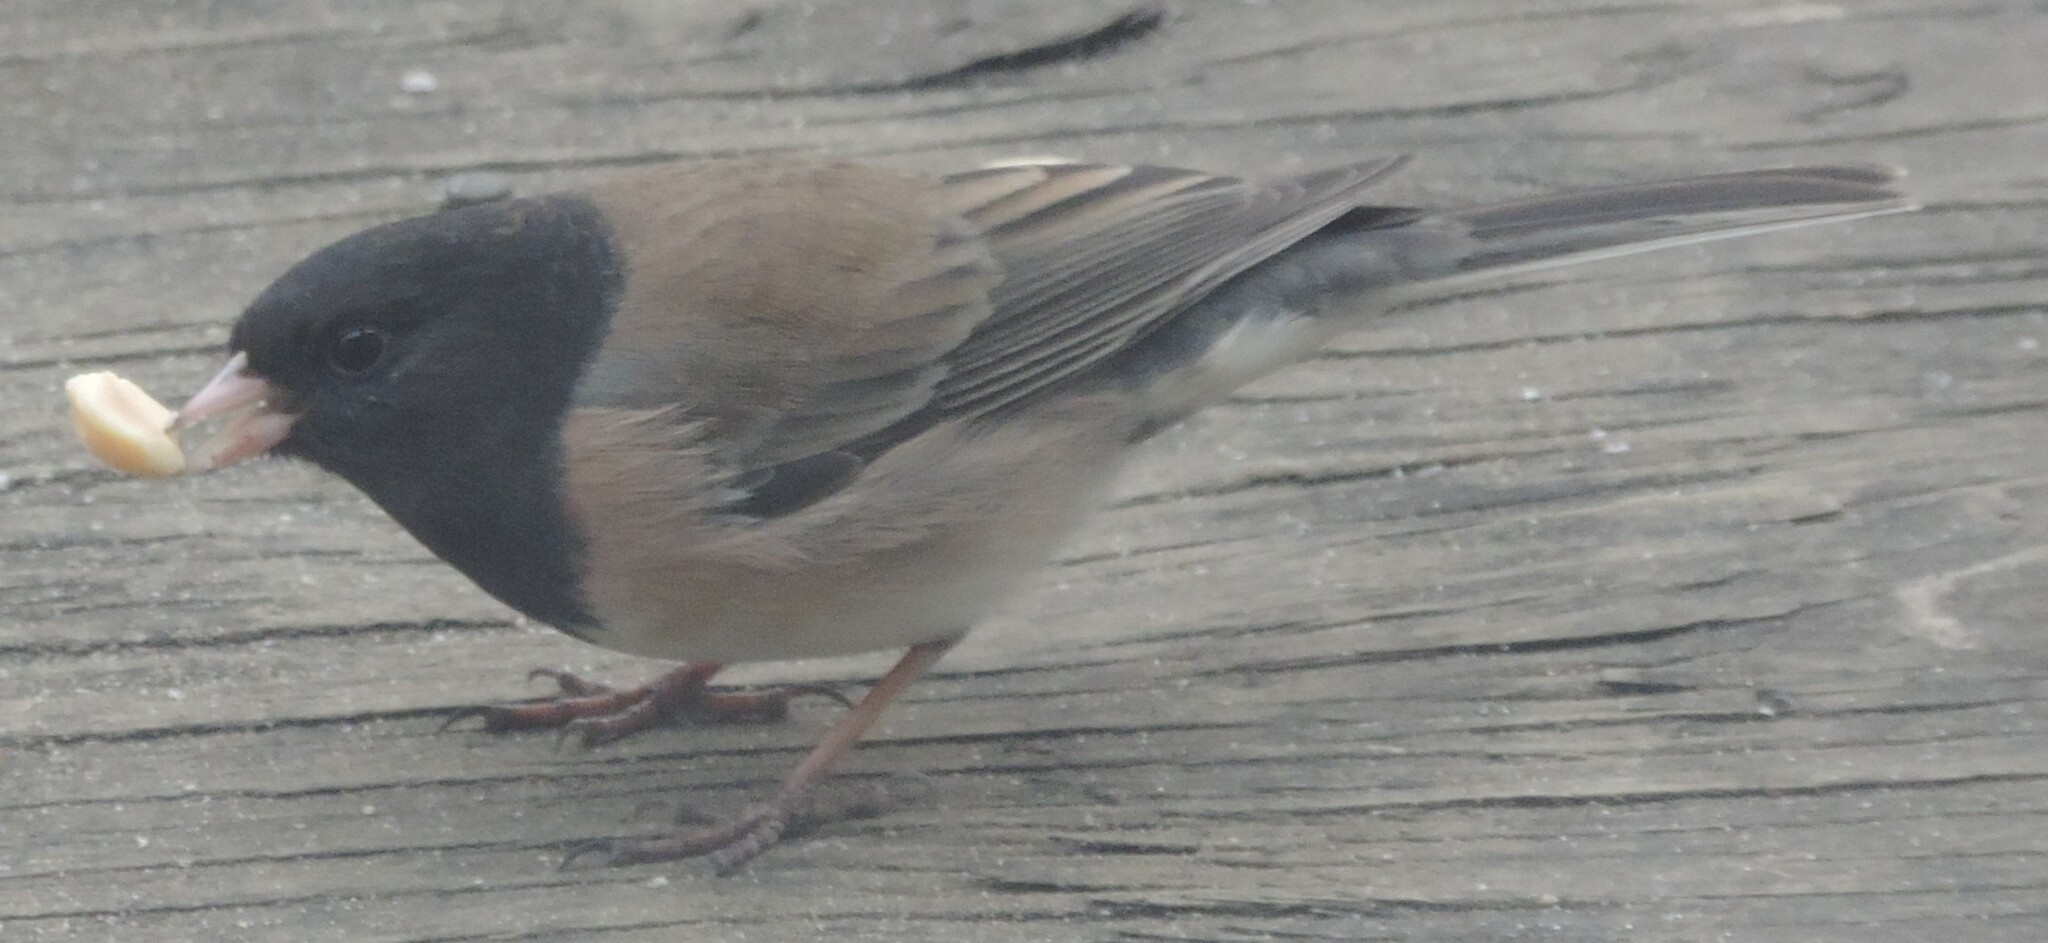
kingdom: Animalia
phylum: Chordata
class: Aves
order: Passeriformes
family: Passerellidae
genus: Junco
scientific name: Junco hyemalis
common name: Dark-eyed junco
